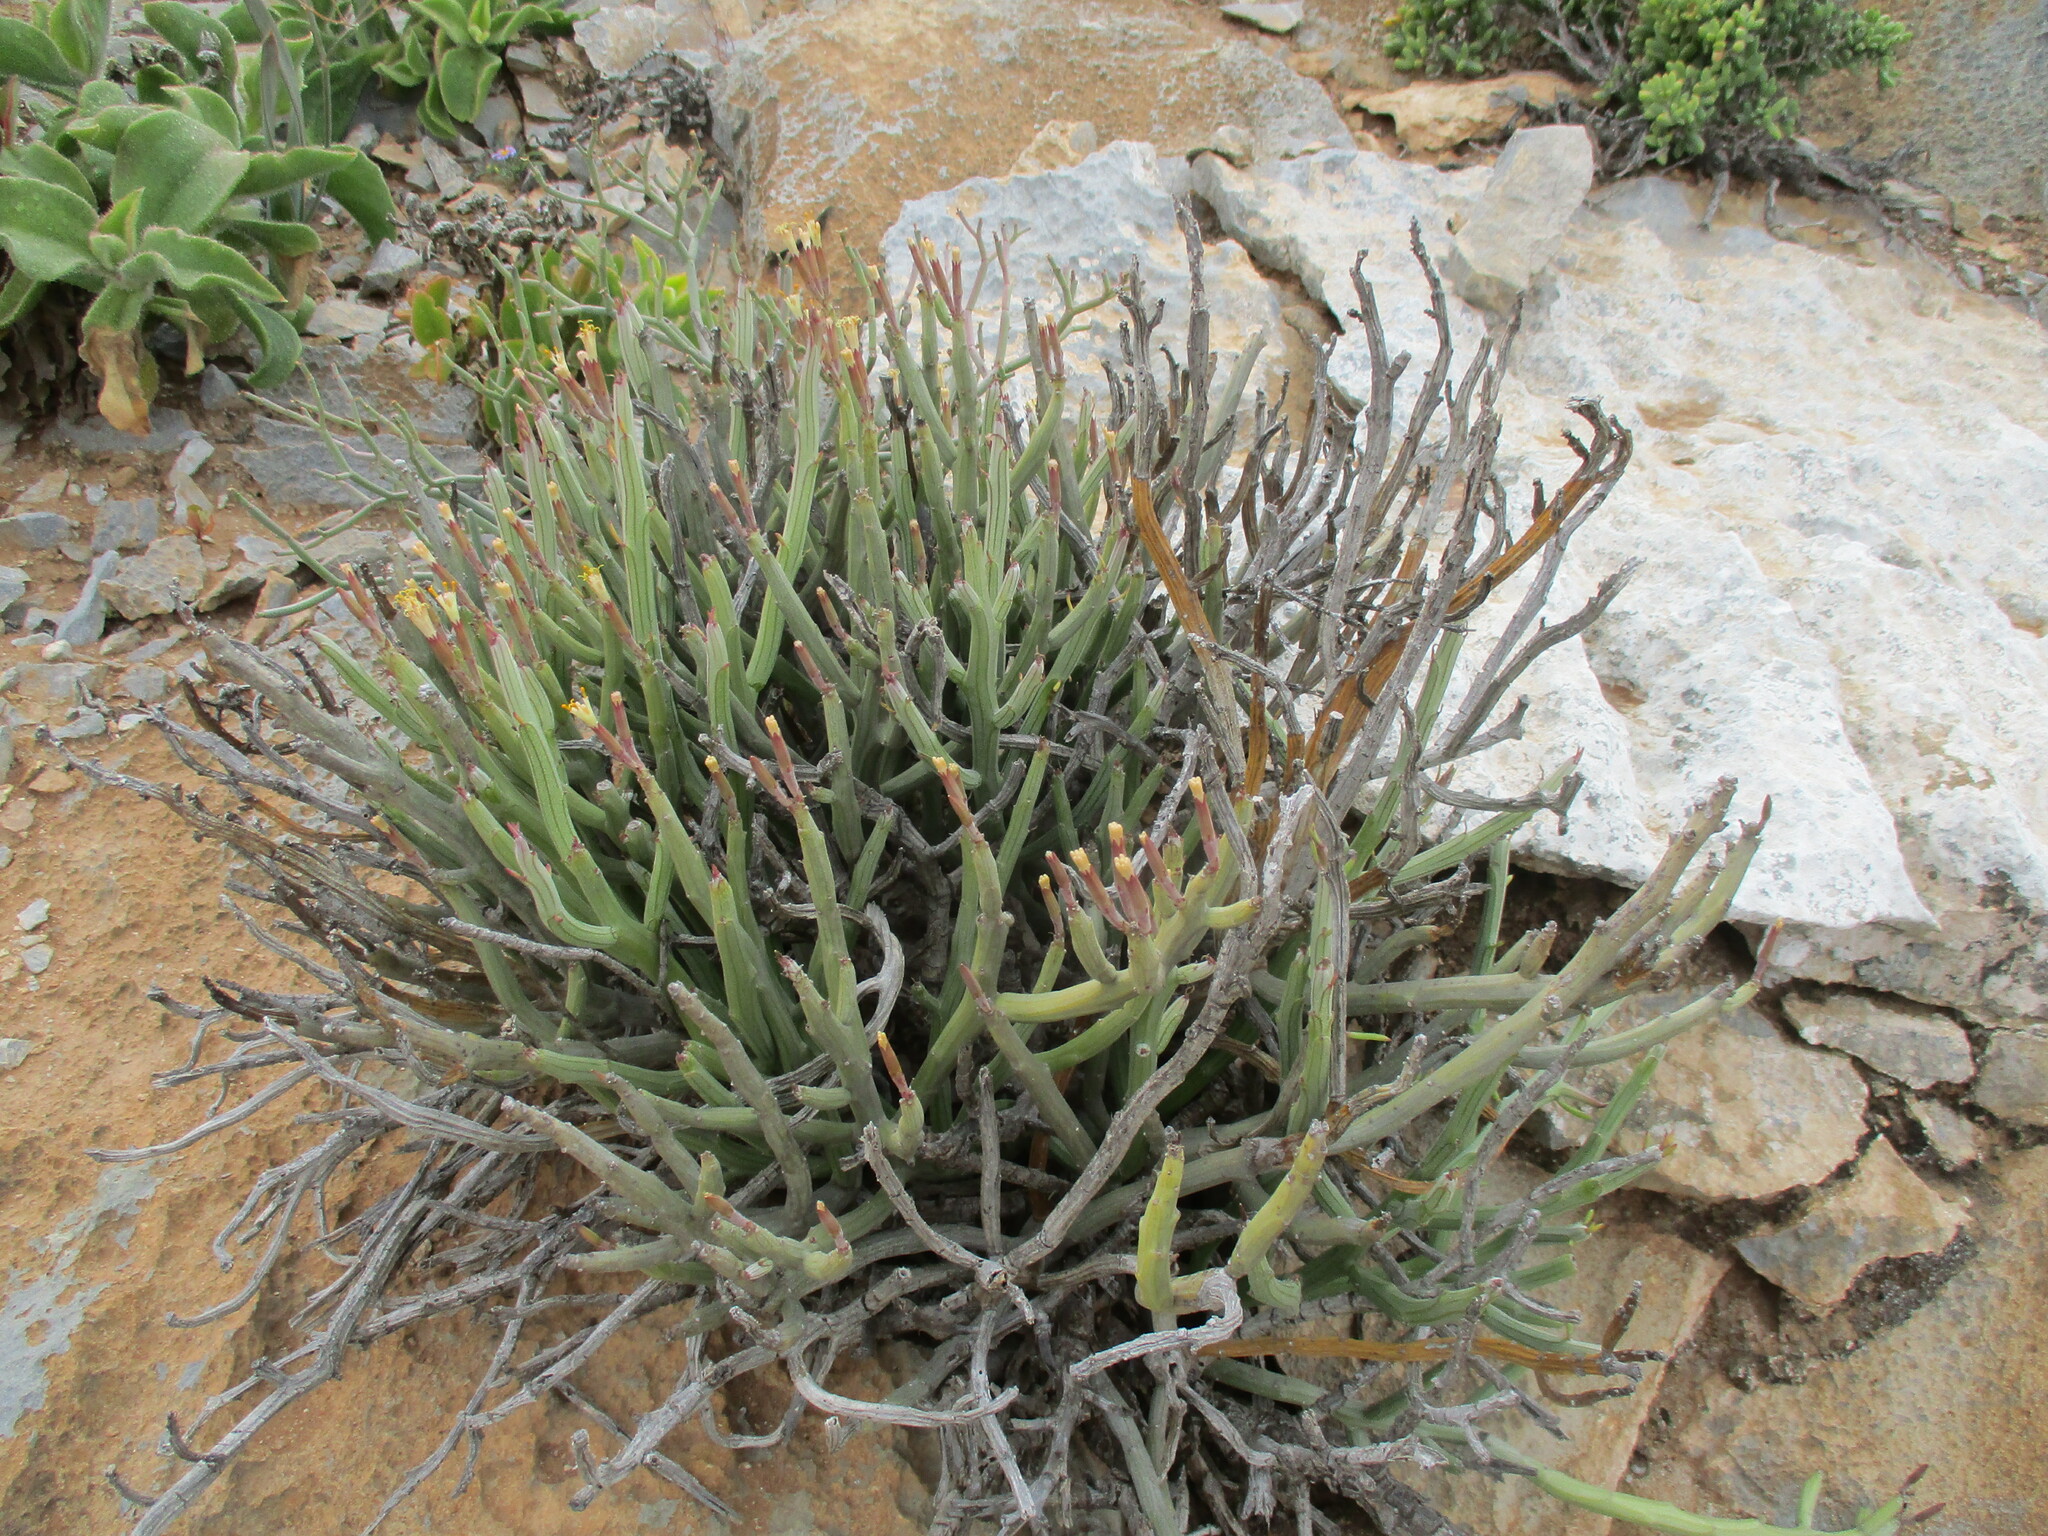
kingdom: Plantae
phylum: Tracheophyta
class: Magnoliopsida
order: Asterales
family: Asteraceae
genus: Curio
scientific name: Curio avasimontanus
